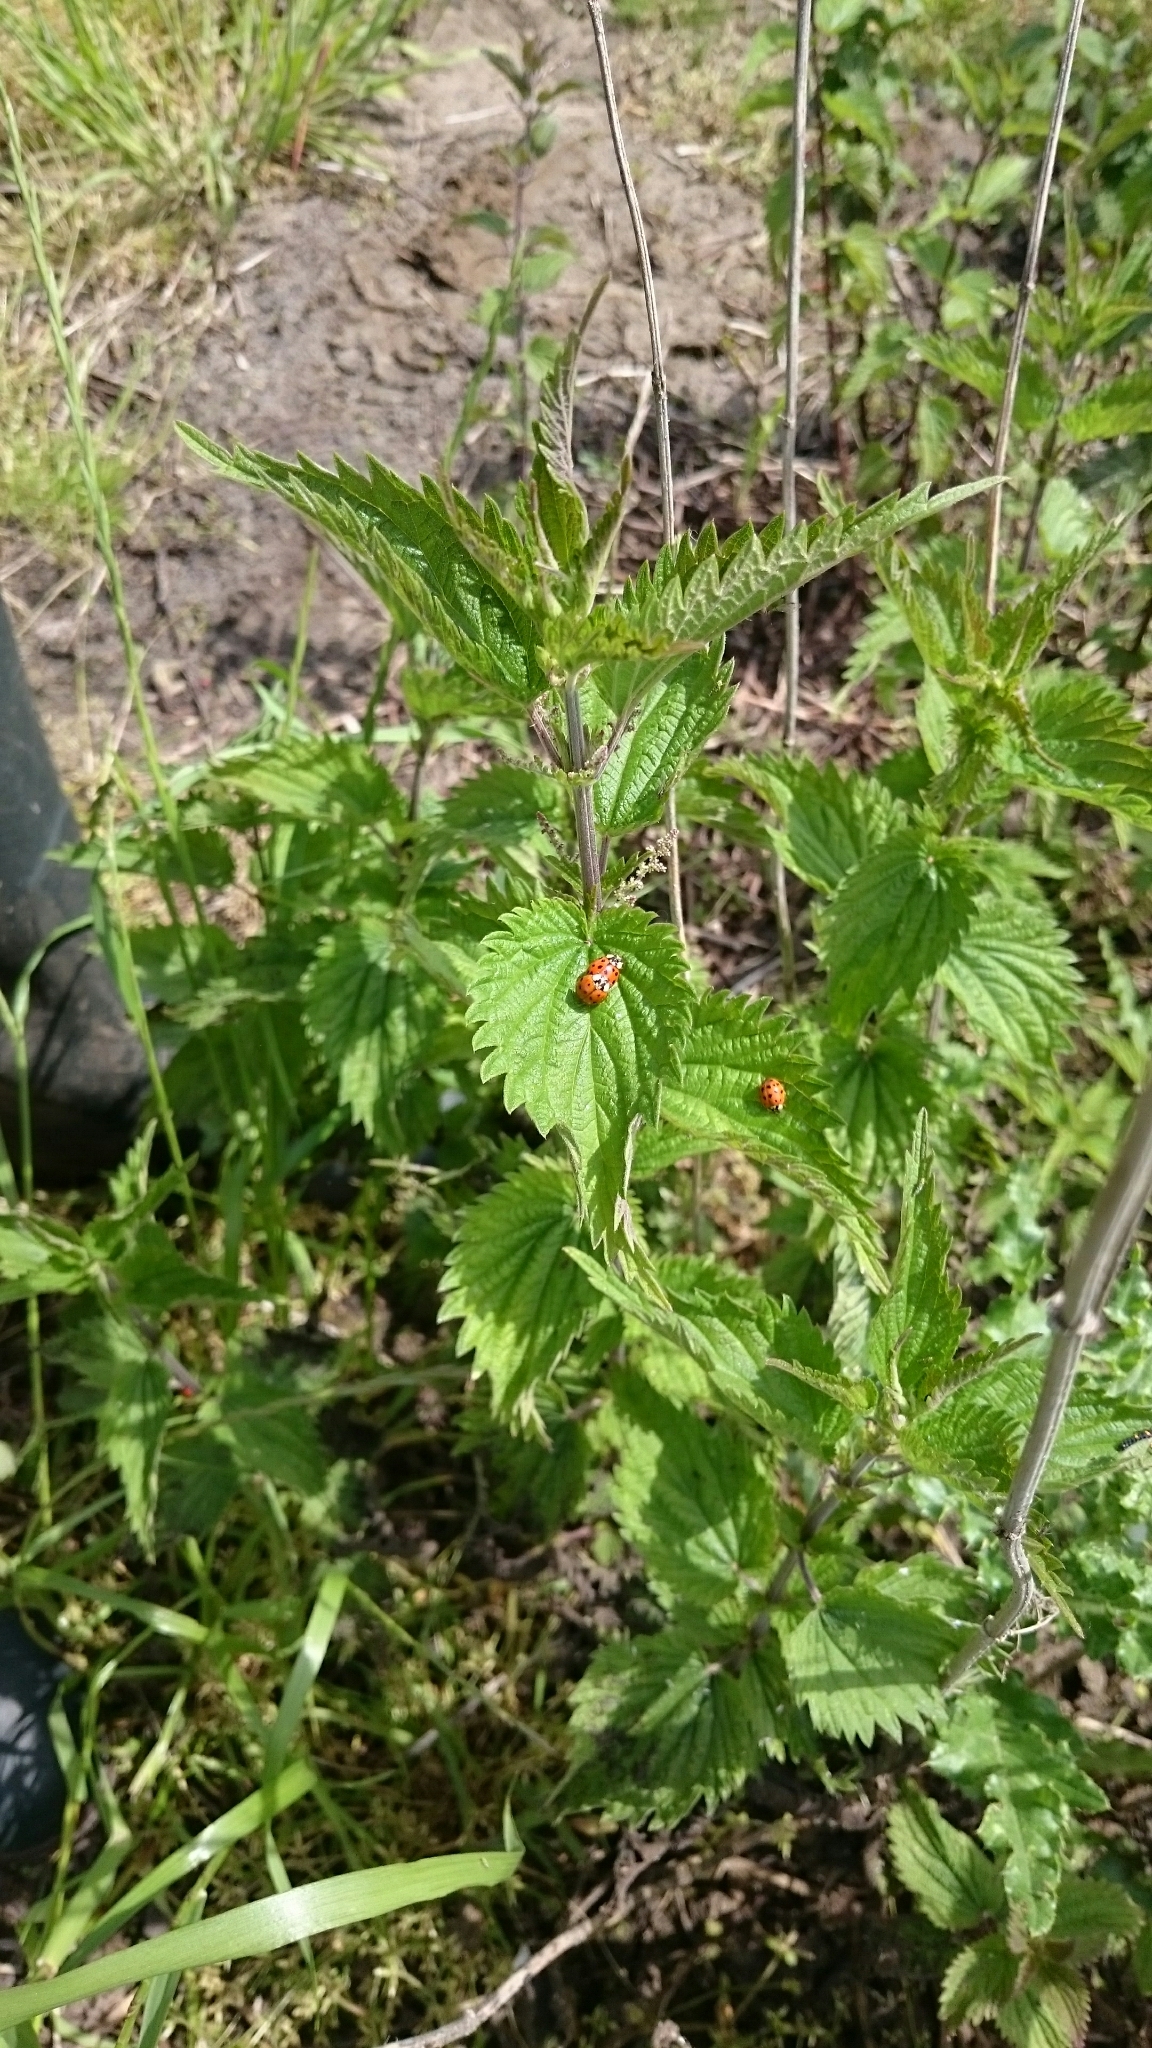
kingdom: Animalia
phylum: Arthropoda
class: Insecta
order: Coleoptera
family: Coccinellidae
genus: Harmonia
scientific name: Harmonia axyridis
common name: Harlequin ladybird
